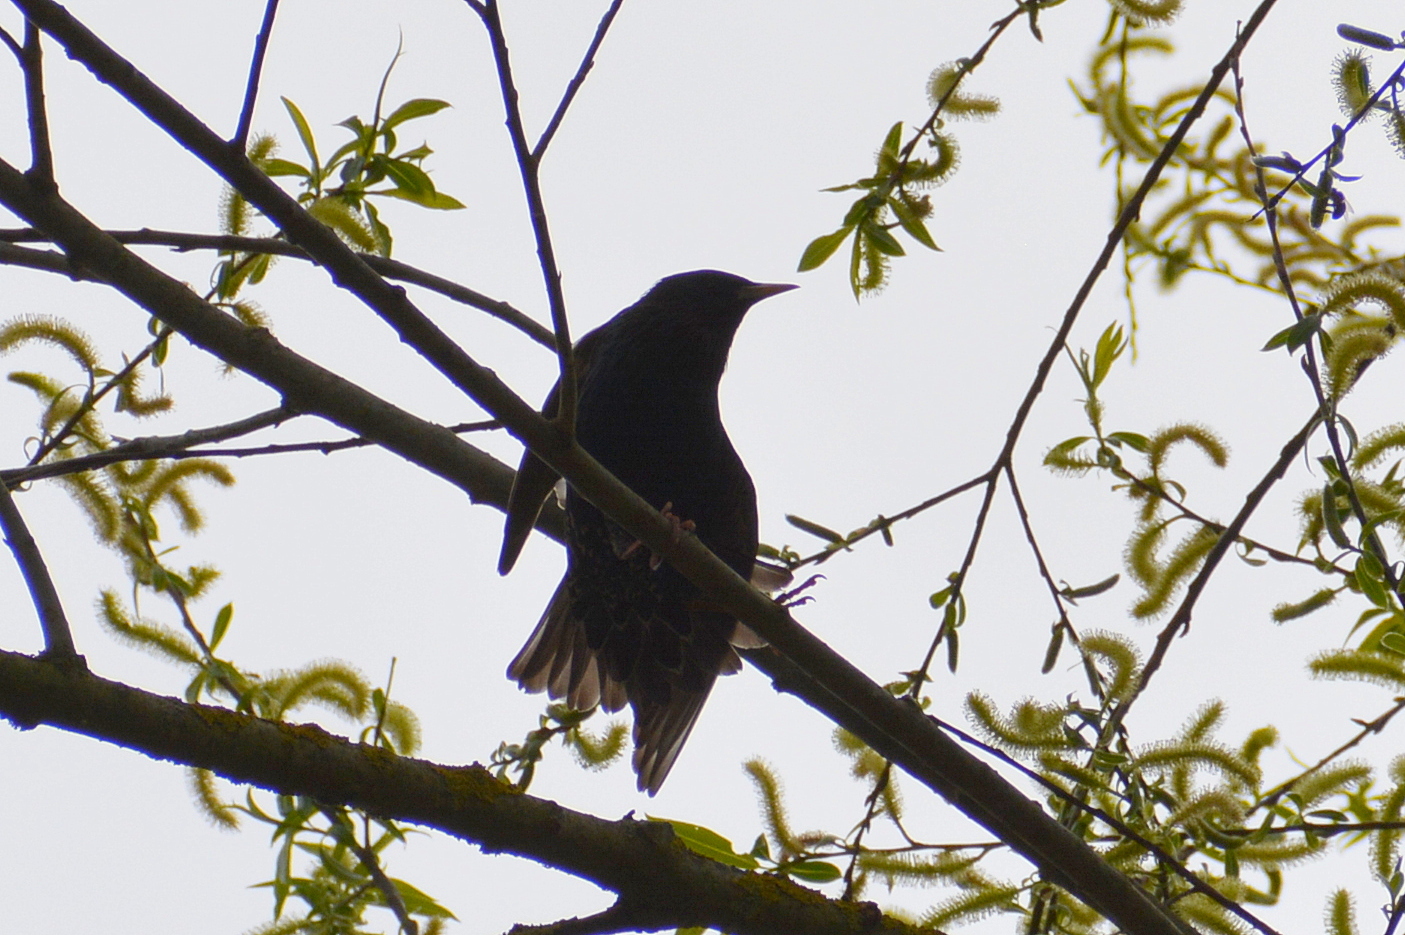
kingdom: Animalia
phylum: Chordata
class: Aves
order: Passeriformes
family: Sturnidae
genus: Sturnus
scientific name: Sturnus vulgaris
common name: Common starling
